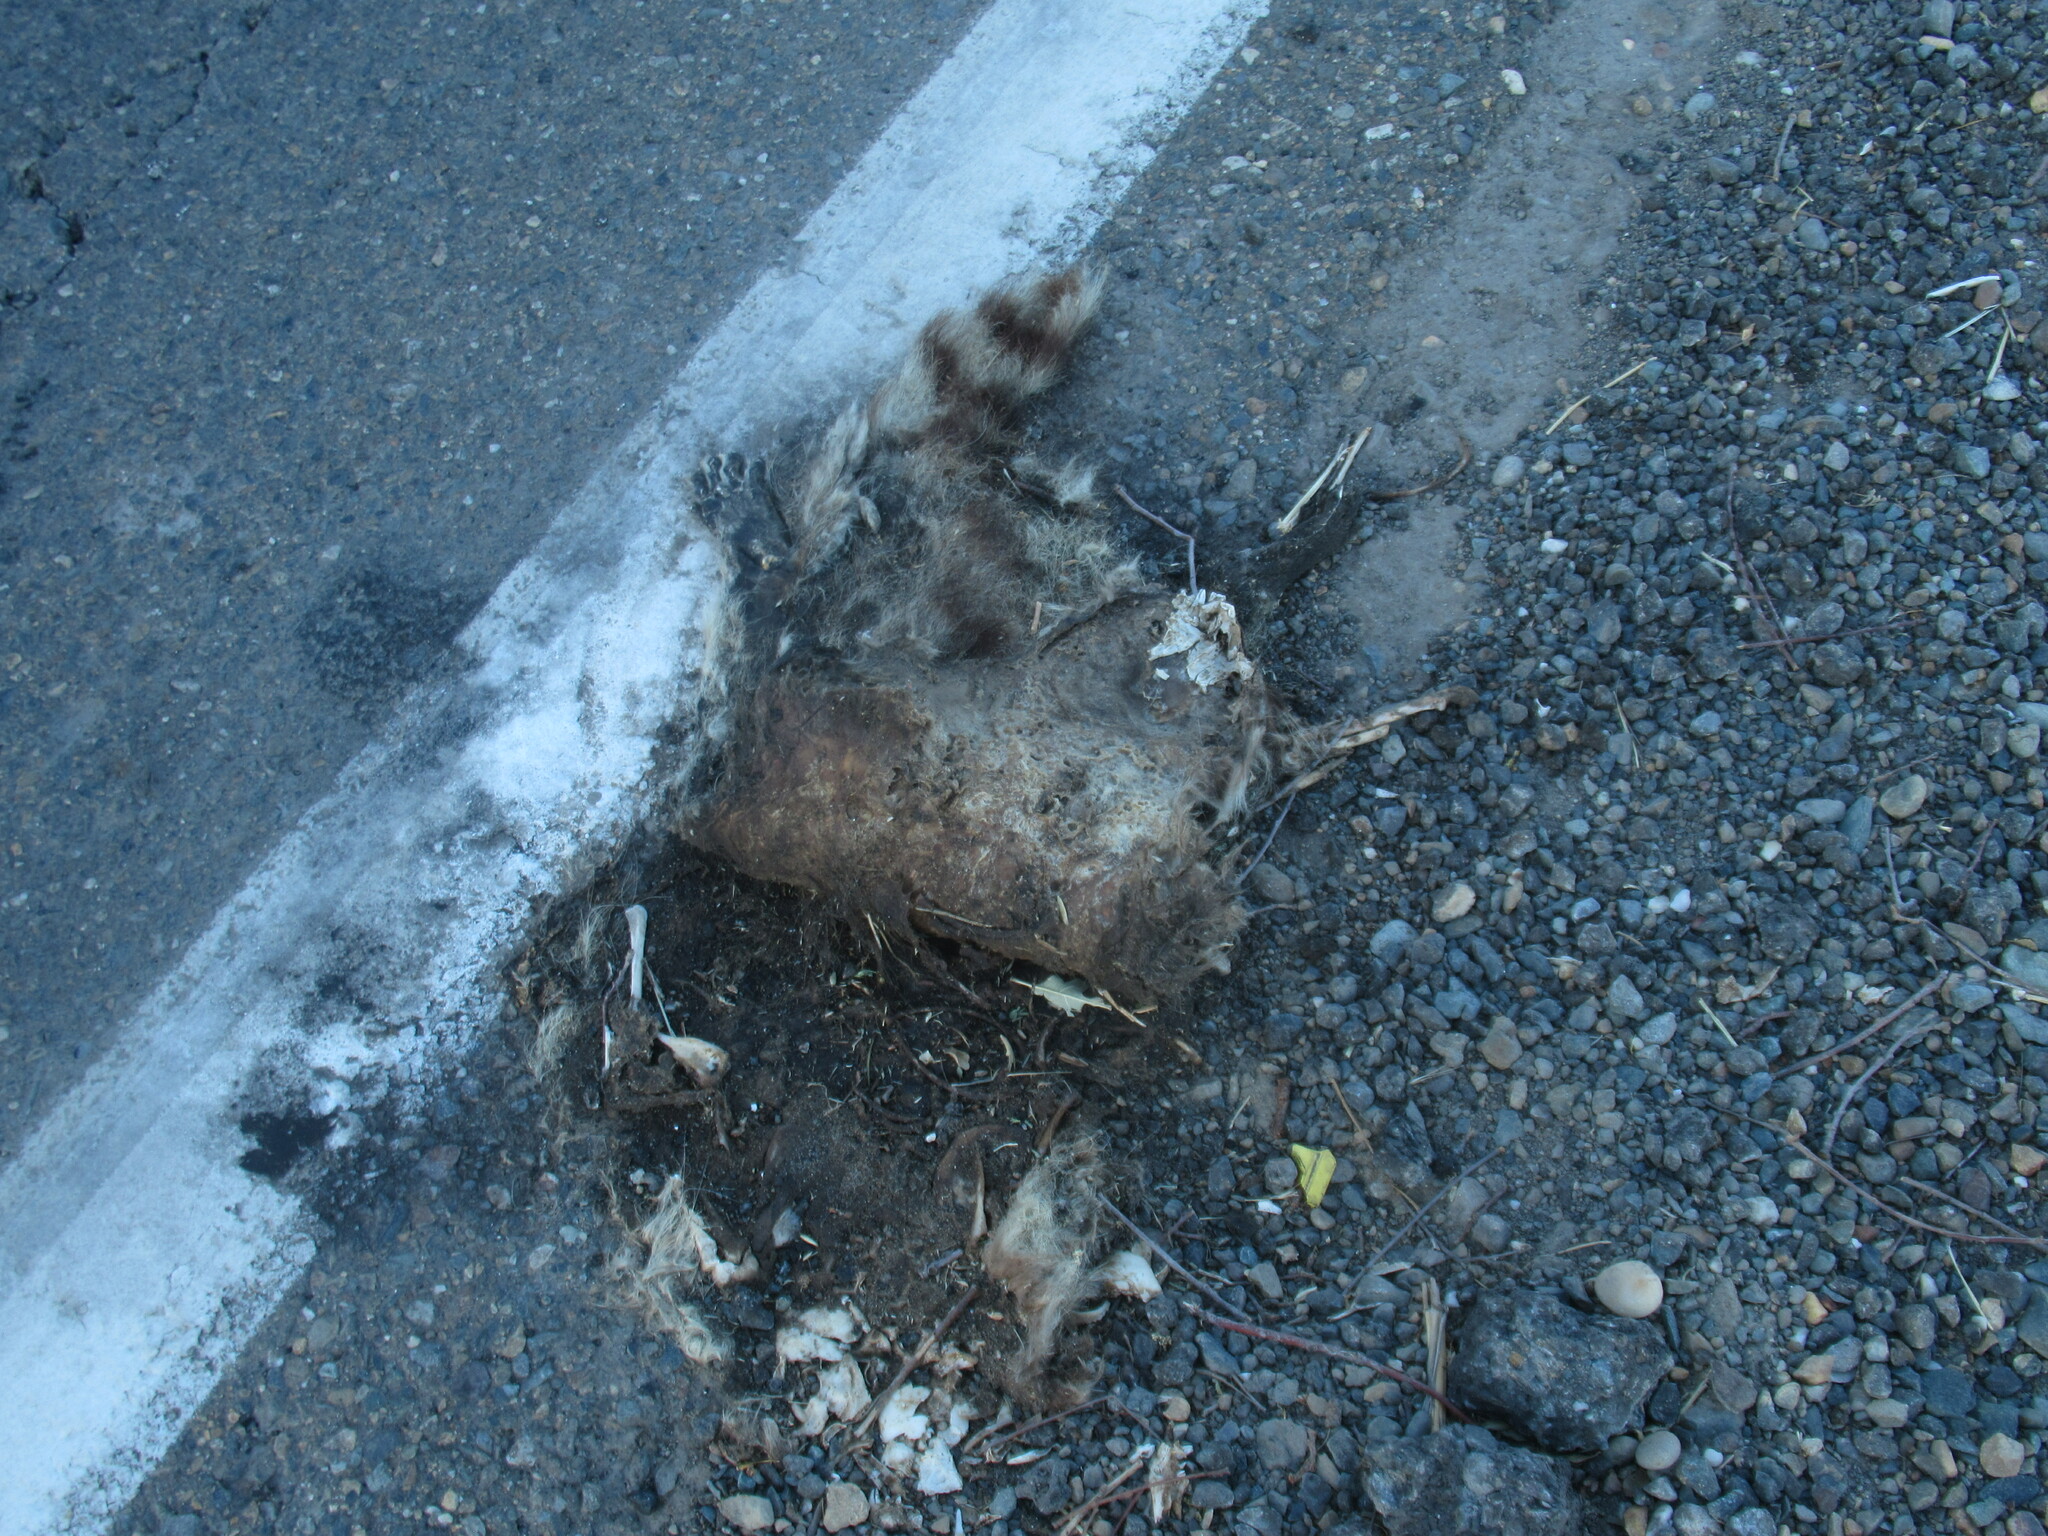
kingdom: Animalia
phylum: Chordata
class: Mammalia
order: Carnivora
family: Procyonidae
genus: Procyon
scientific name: Procyon lotor
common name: Raccoon
